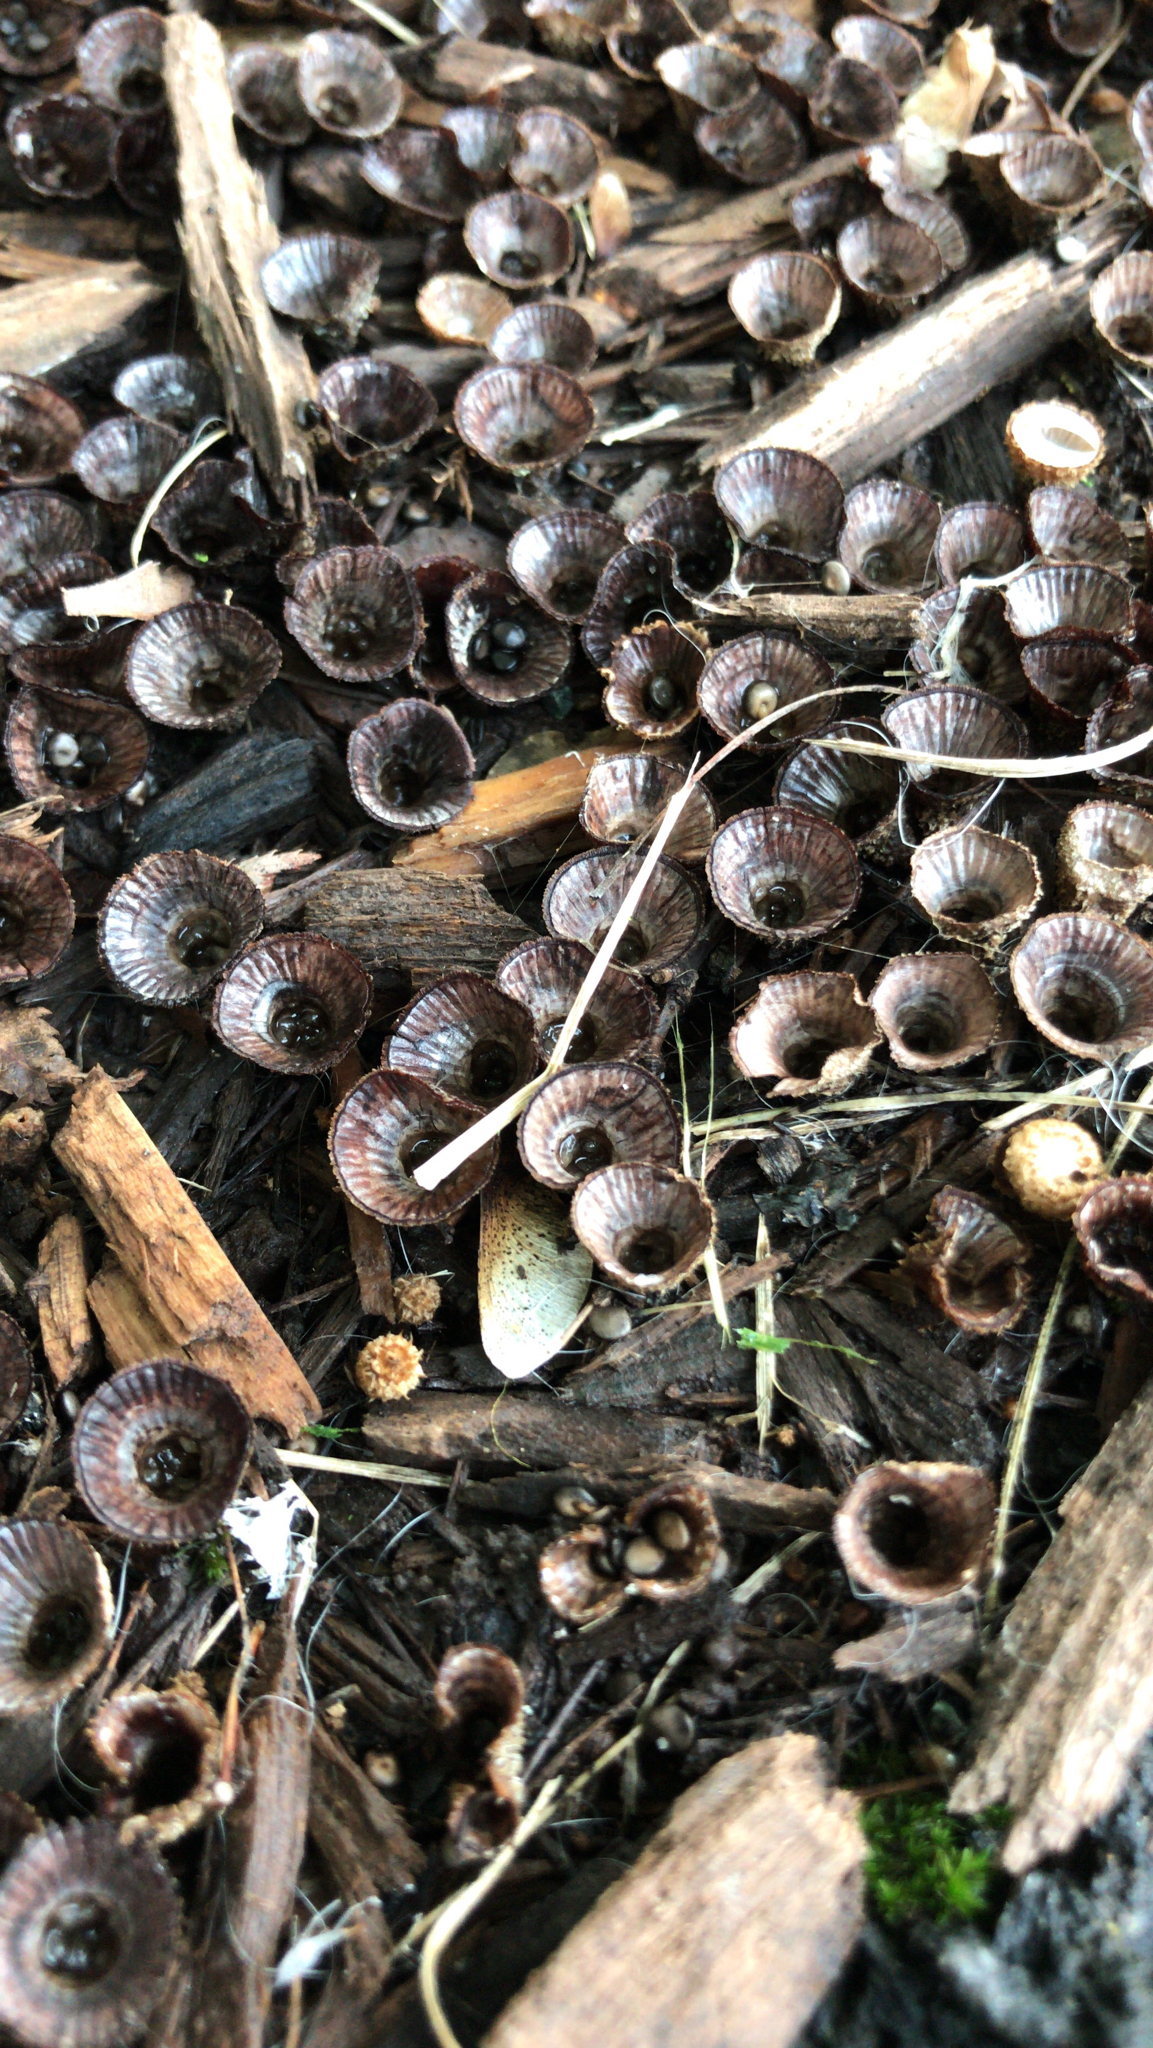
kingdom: Fungi
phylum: Basidiomycota
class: Agaricomycetes
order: Agaricales
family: Agaricaceae
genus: Cyathus
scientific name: Cyathus striatus
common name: Fluted bird's nest
